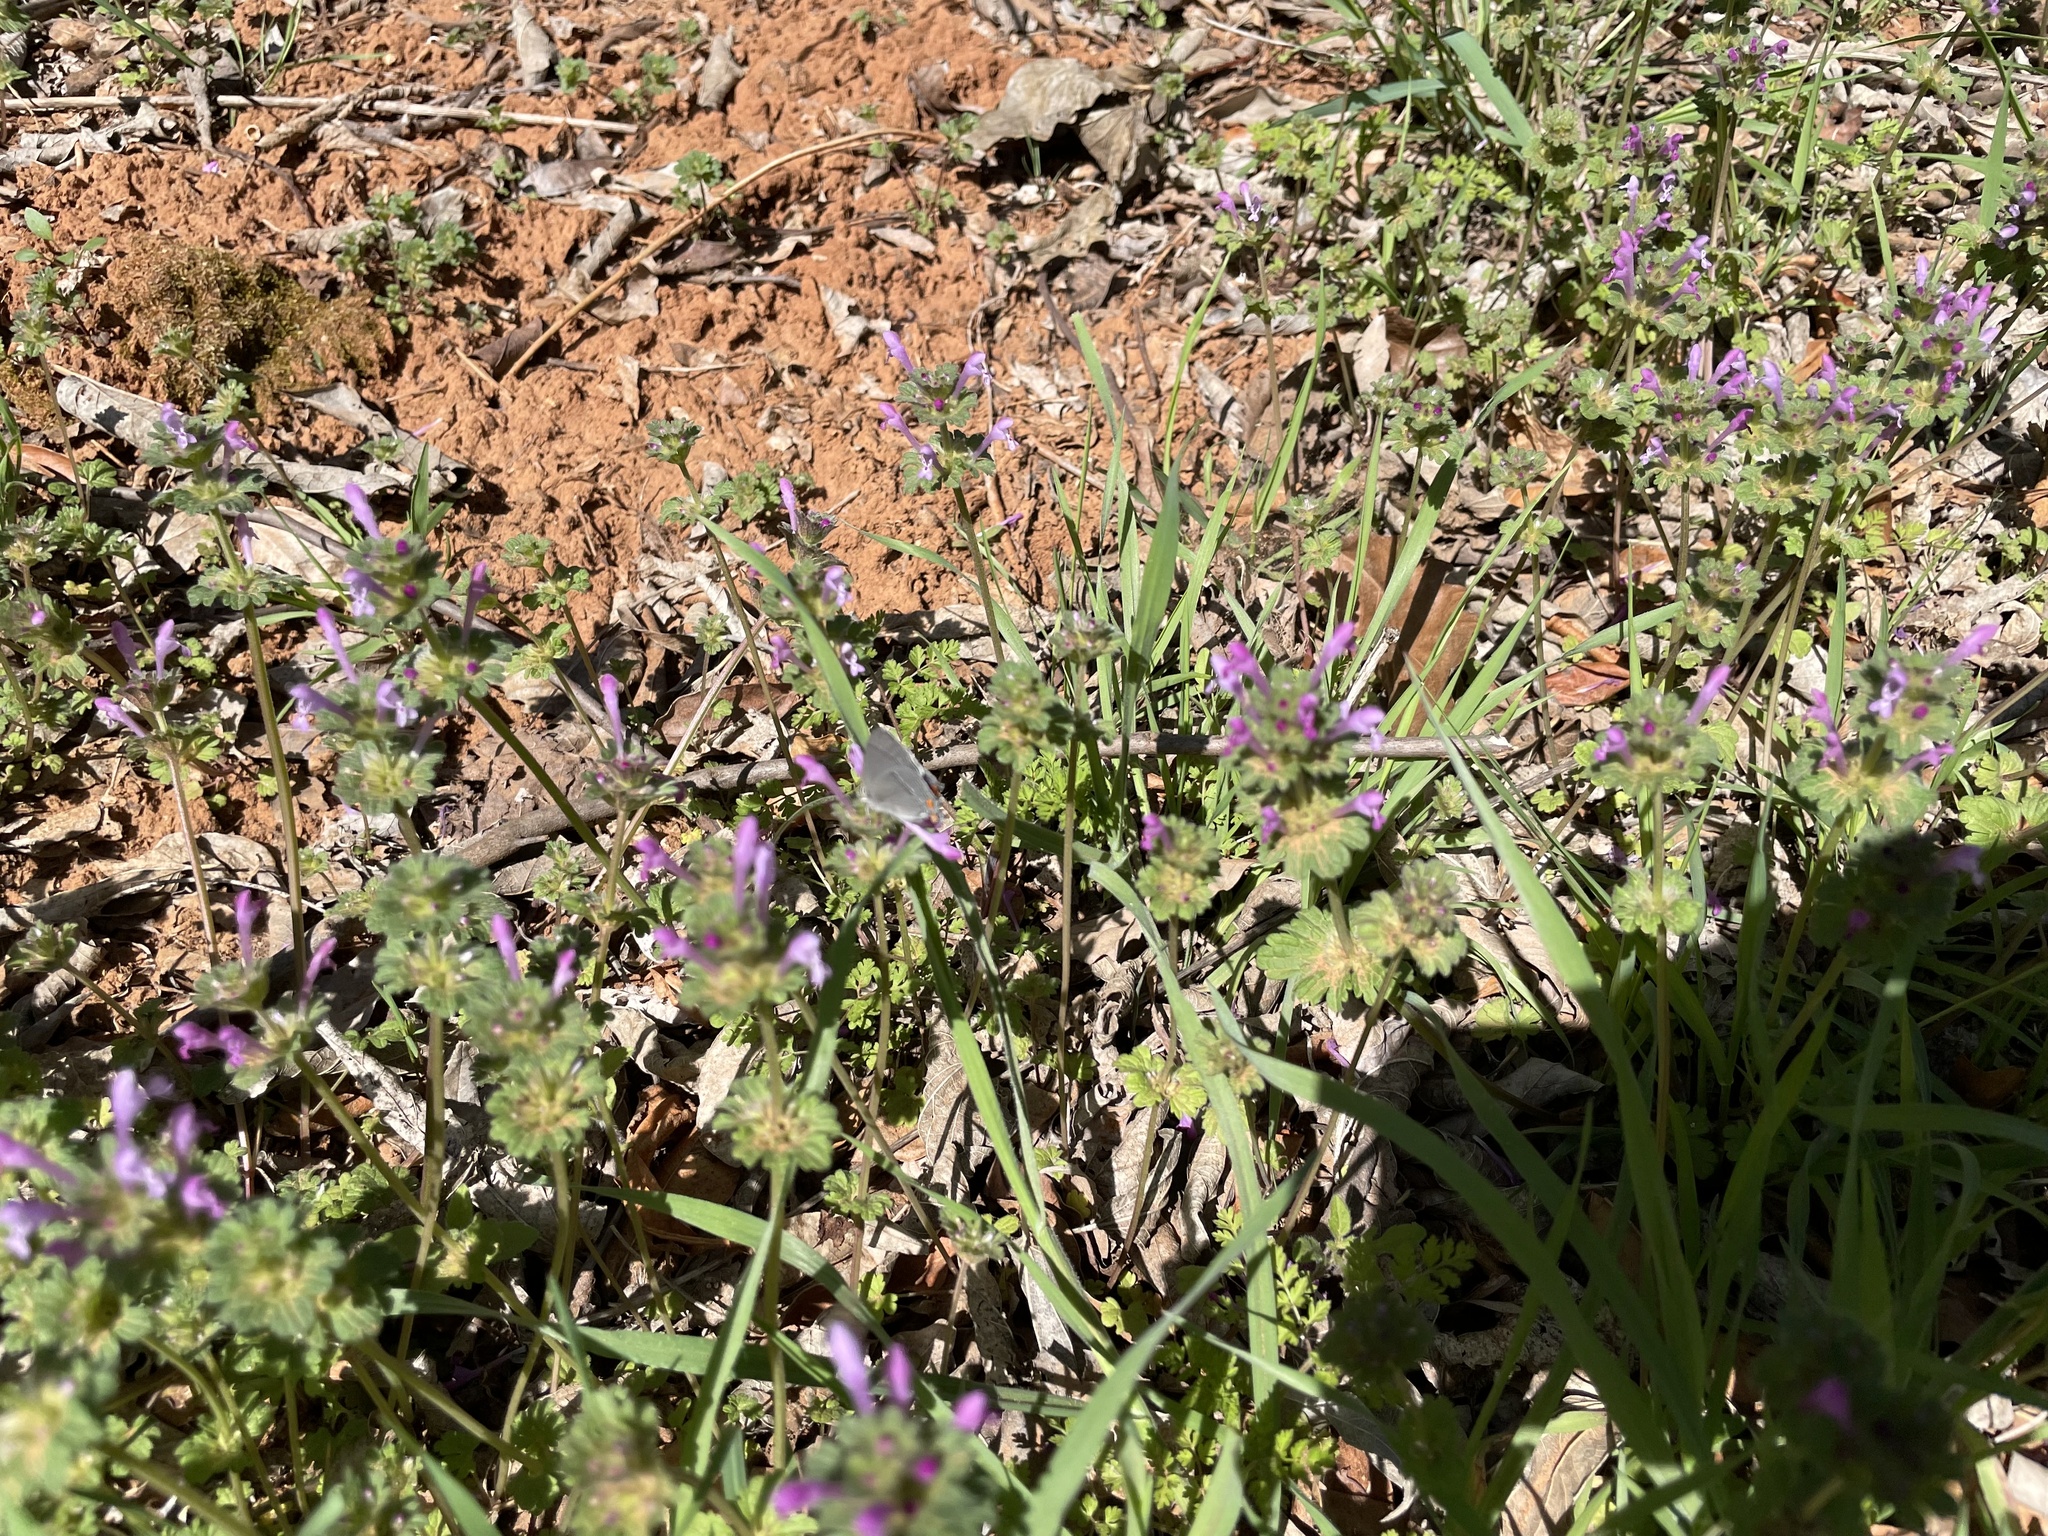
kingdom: Animalia
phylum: Arthropoda
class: Insecta
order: Lepidoptera
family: Lycaenidae
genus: Strymon
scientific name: Strymon melinus
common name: Gray hairstreak
